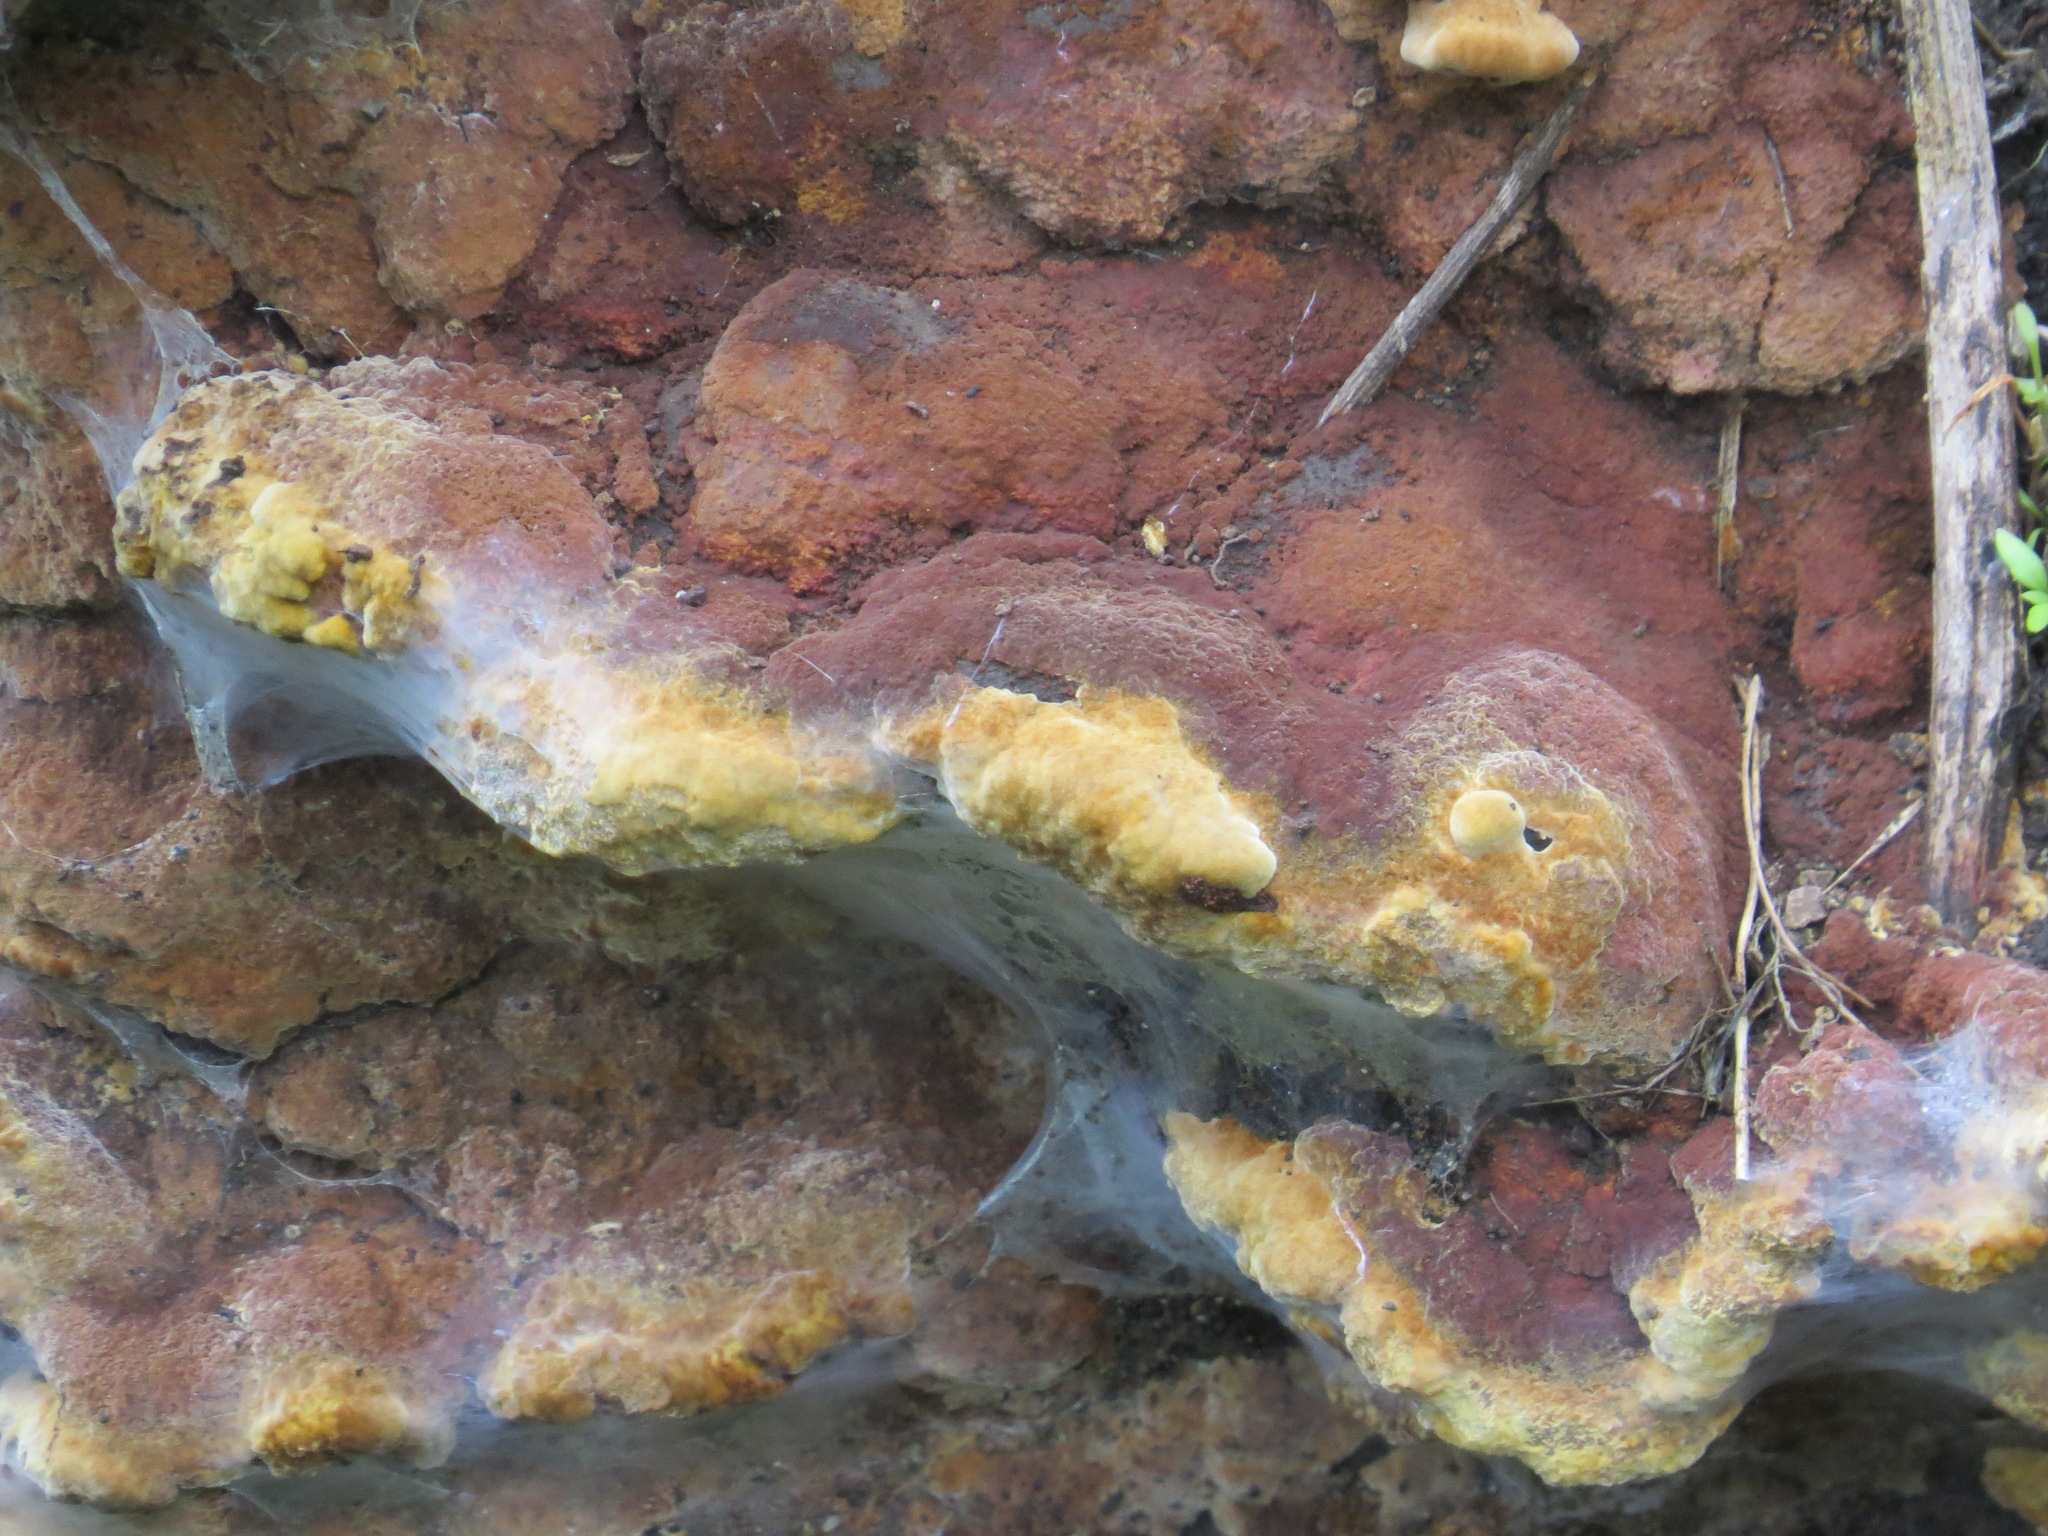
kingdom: Fungi
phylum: Basidiomycota
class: Agaricomycetes
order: Hymenochaetales
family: Hymenochaetaceae
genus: Phellinus
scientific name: Phellinus gilvus
